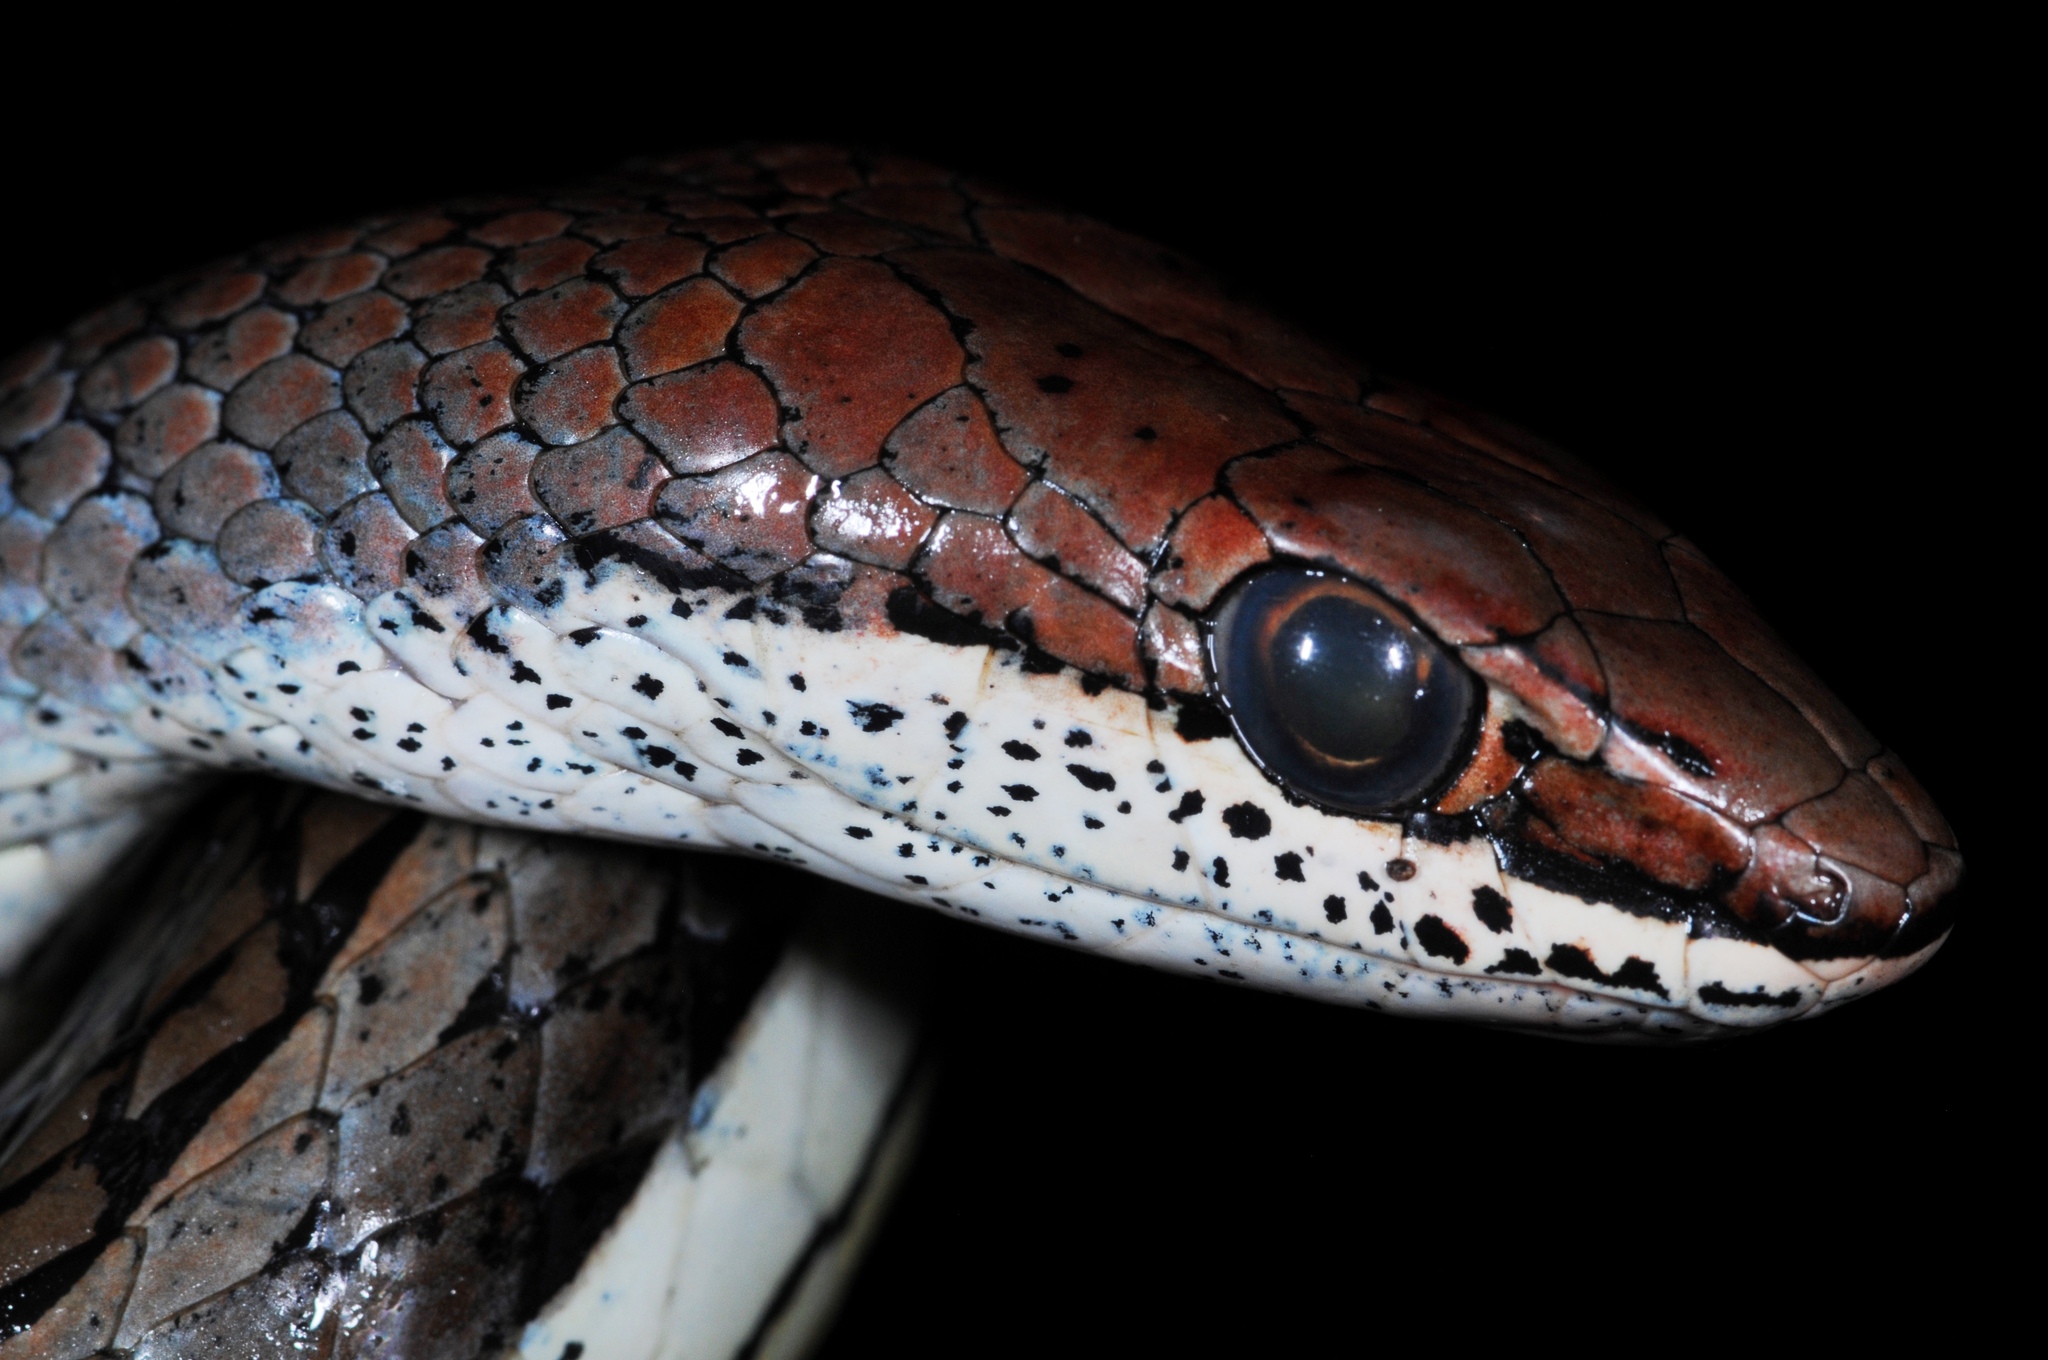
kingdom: Animalia
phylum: Chordata
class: Squamata
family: Psammophiidae
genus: Psammophis
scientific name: Psammophis orientalis
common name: Eastern stripe-bellied sand snake
